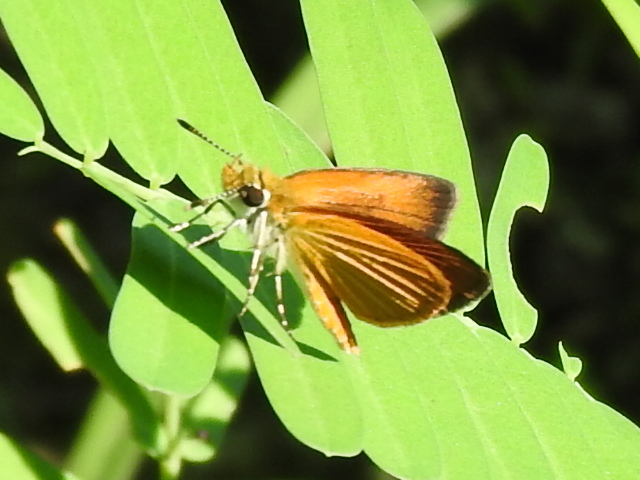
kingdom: Animalia
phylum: Arthropoda
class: Insecta
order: Lepidoptera
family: Hesperiidae
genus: Ancyloxypha
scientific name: Ancyloxypha numitor
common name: Least skipper
